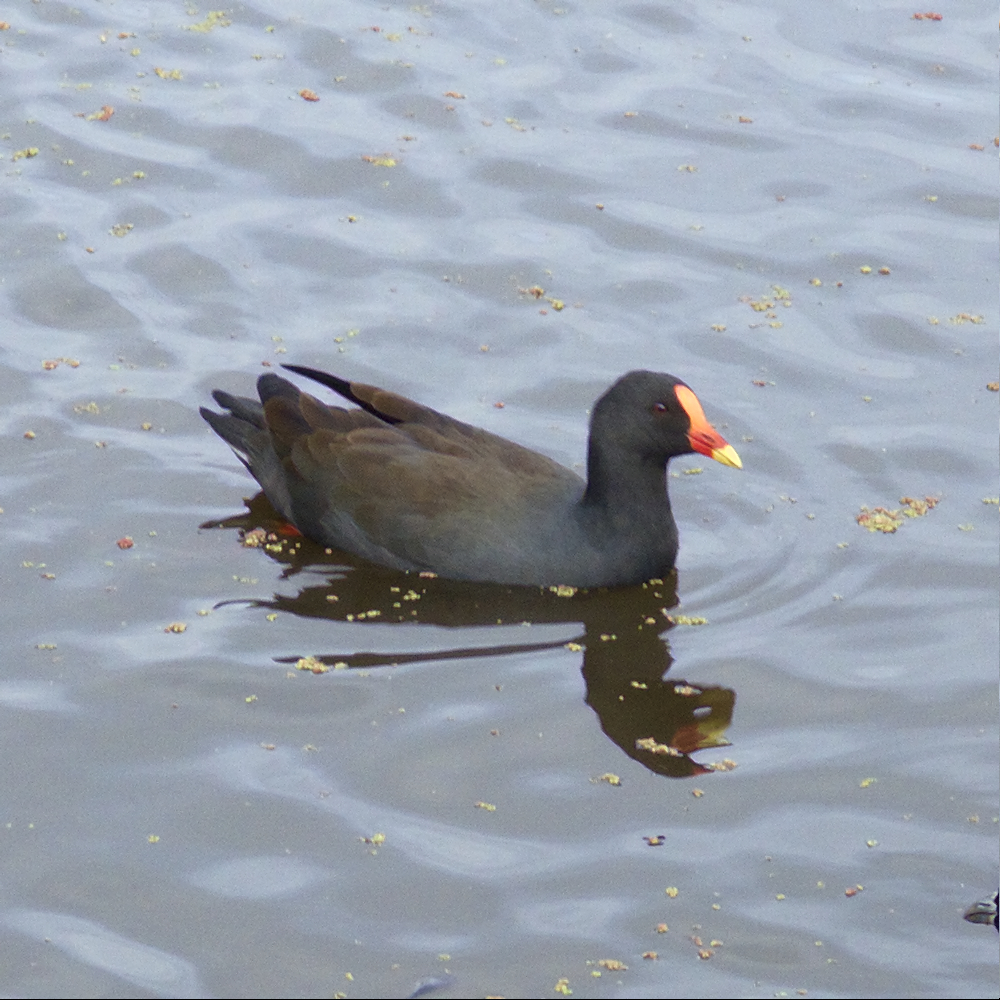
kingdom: Animalia
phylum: Chordata
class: Aves
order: Gruiformes
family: Rallidae
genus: Gallinula
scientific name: Gallinula tenebrosa
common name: Dusky moorhen
